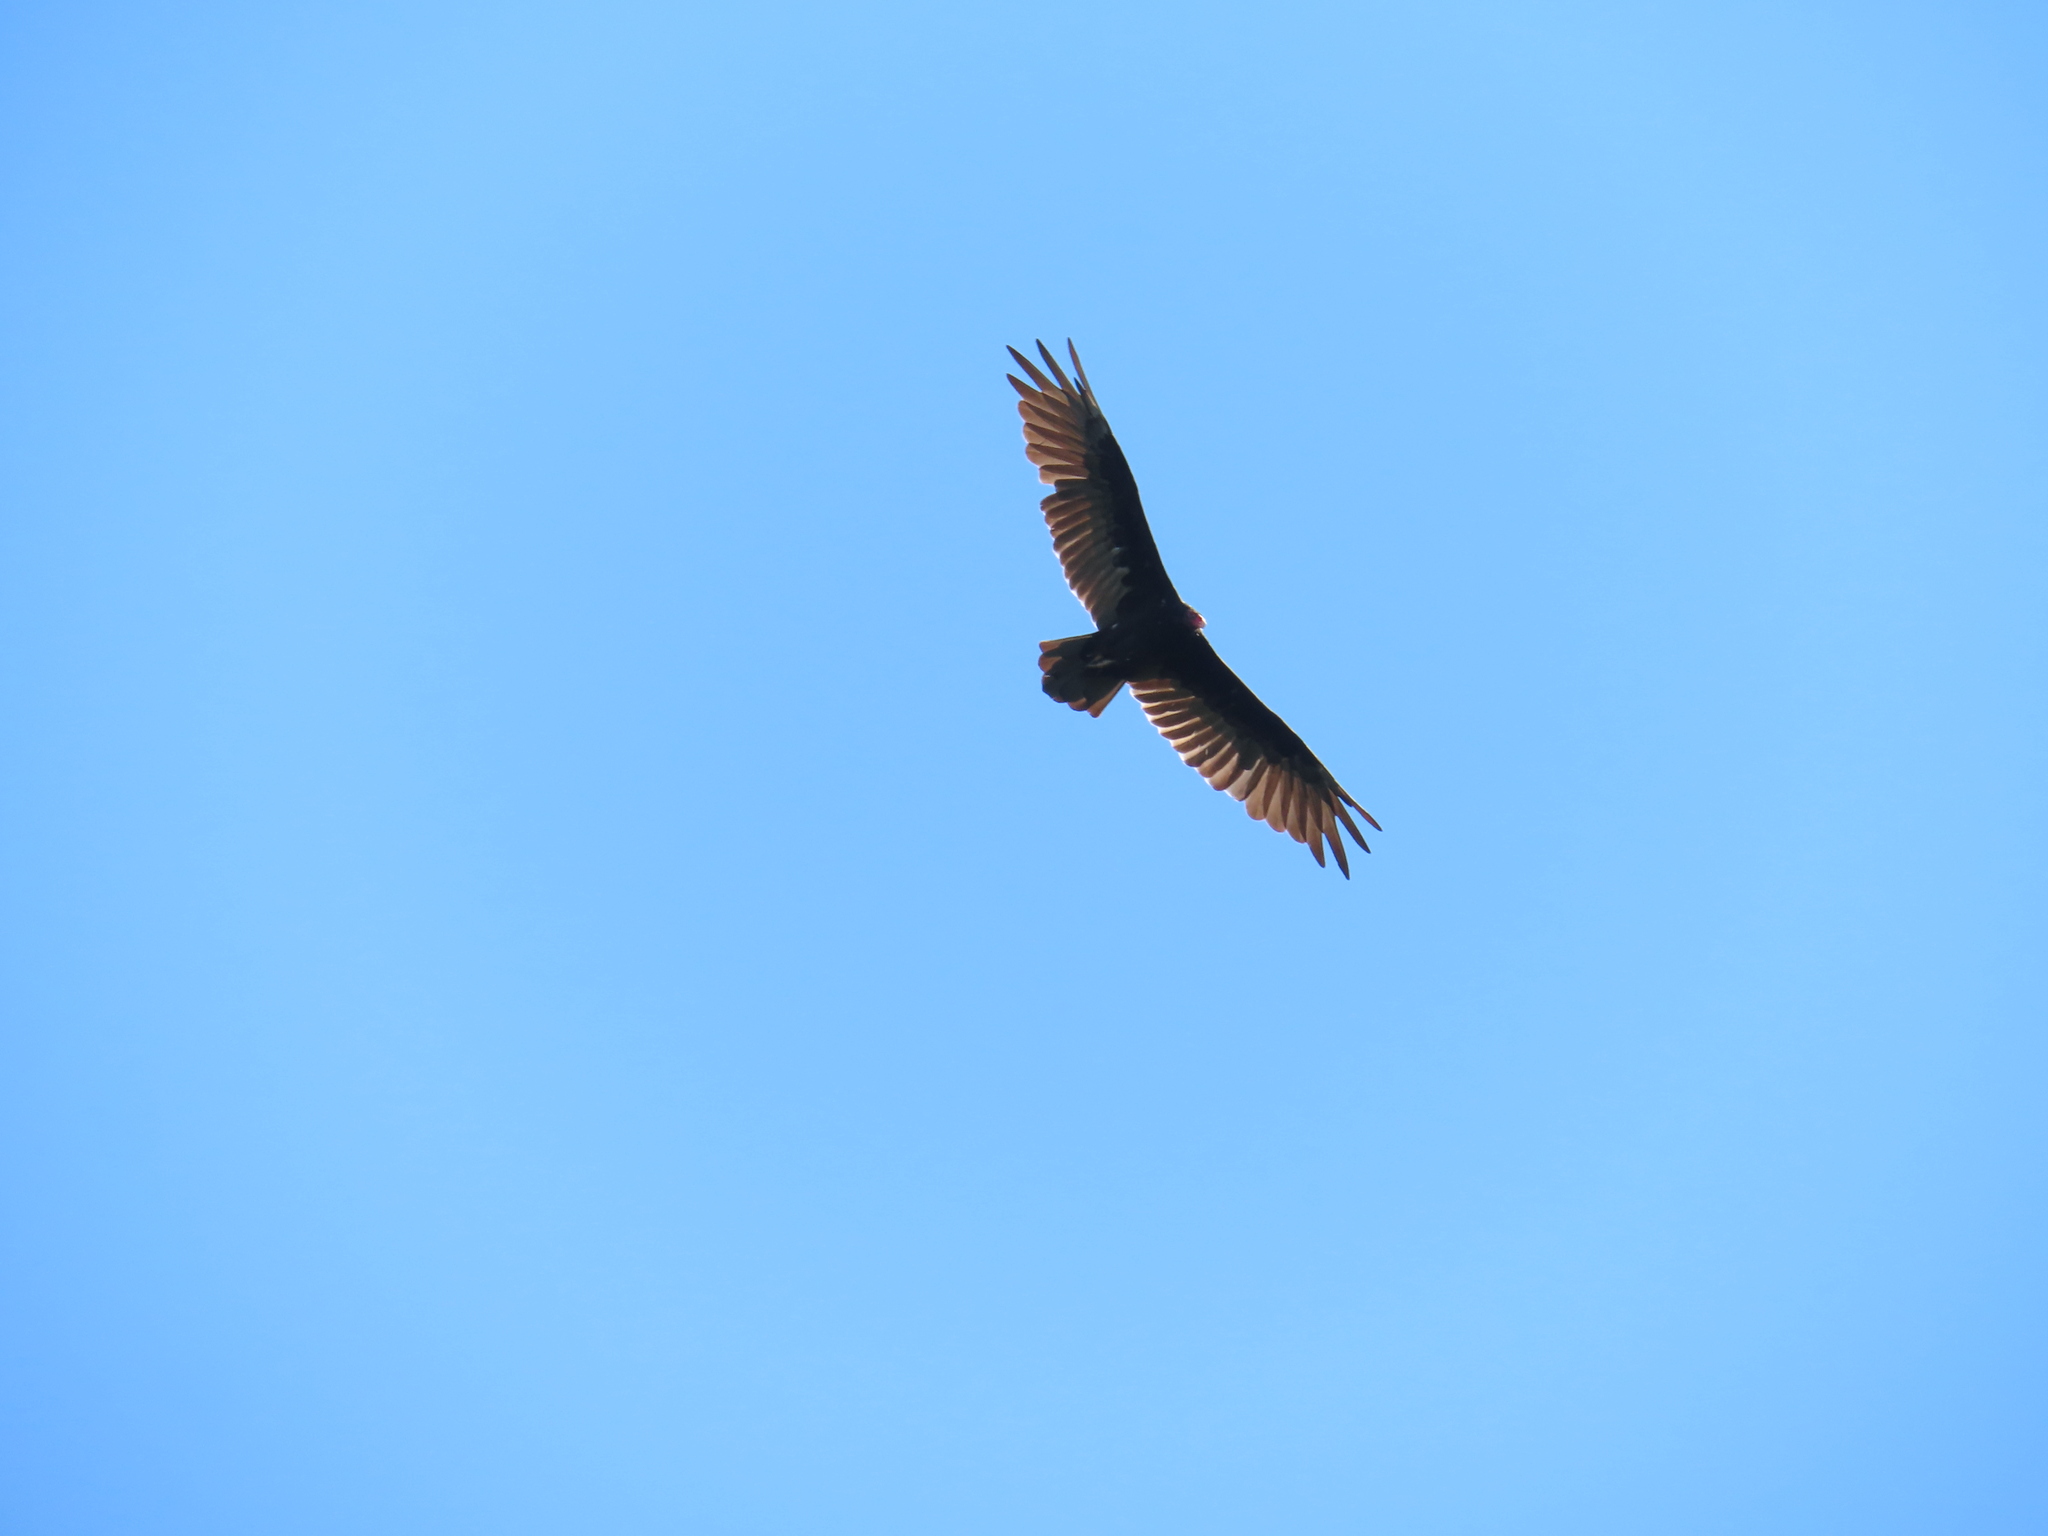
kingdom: Animalia
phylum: Chordata
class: Aves
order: Accipitriformes
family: Cathartidae
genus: Cathartes
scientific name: Cathartes aura
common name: Turkey vulture
